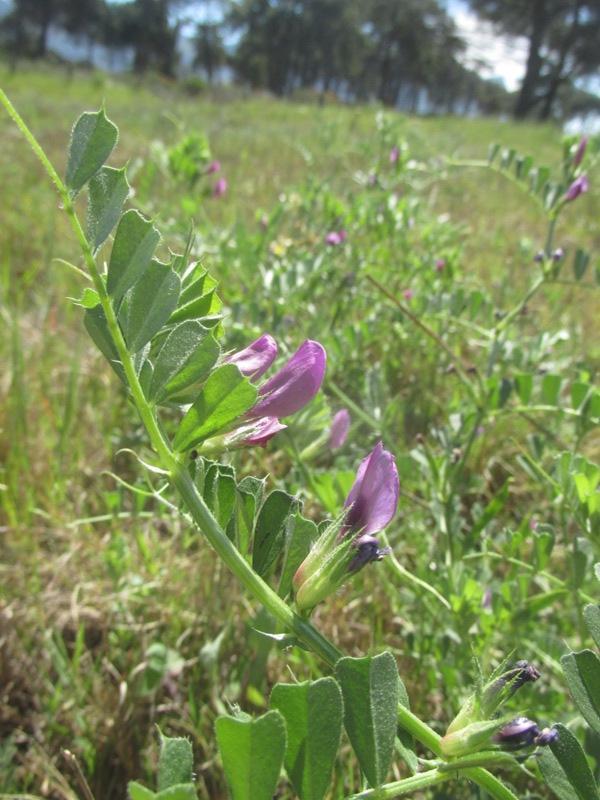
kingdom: Plantae
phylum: Tracheophyta
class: Magnoliopsida
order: Fabales
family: Fabaceae
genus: Vicia
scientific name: Vicia sativa
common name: Garden vetch
